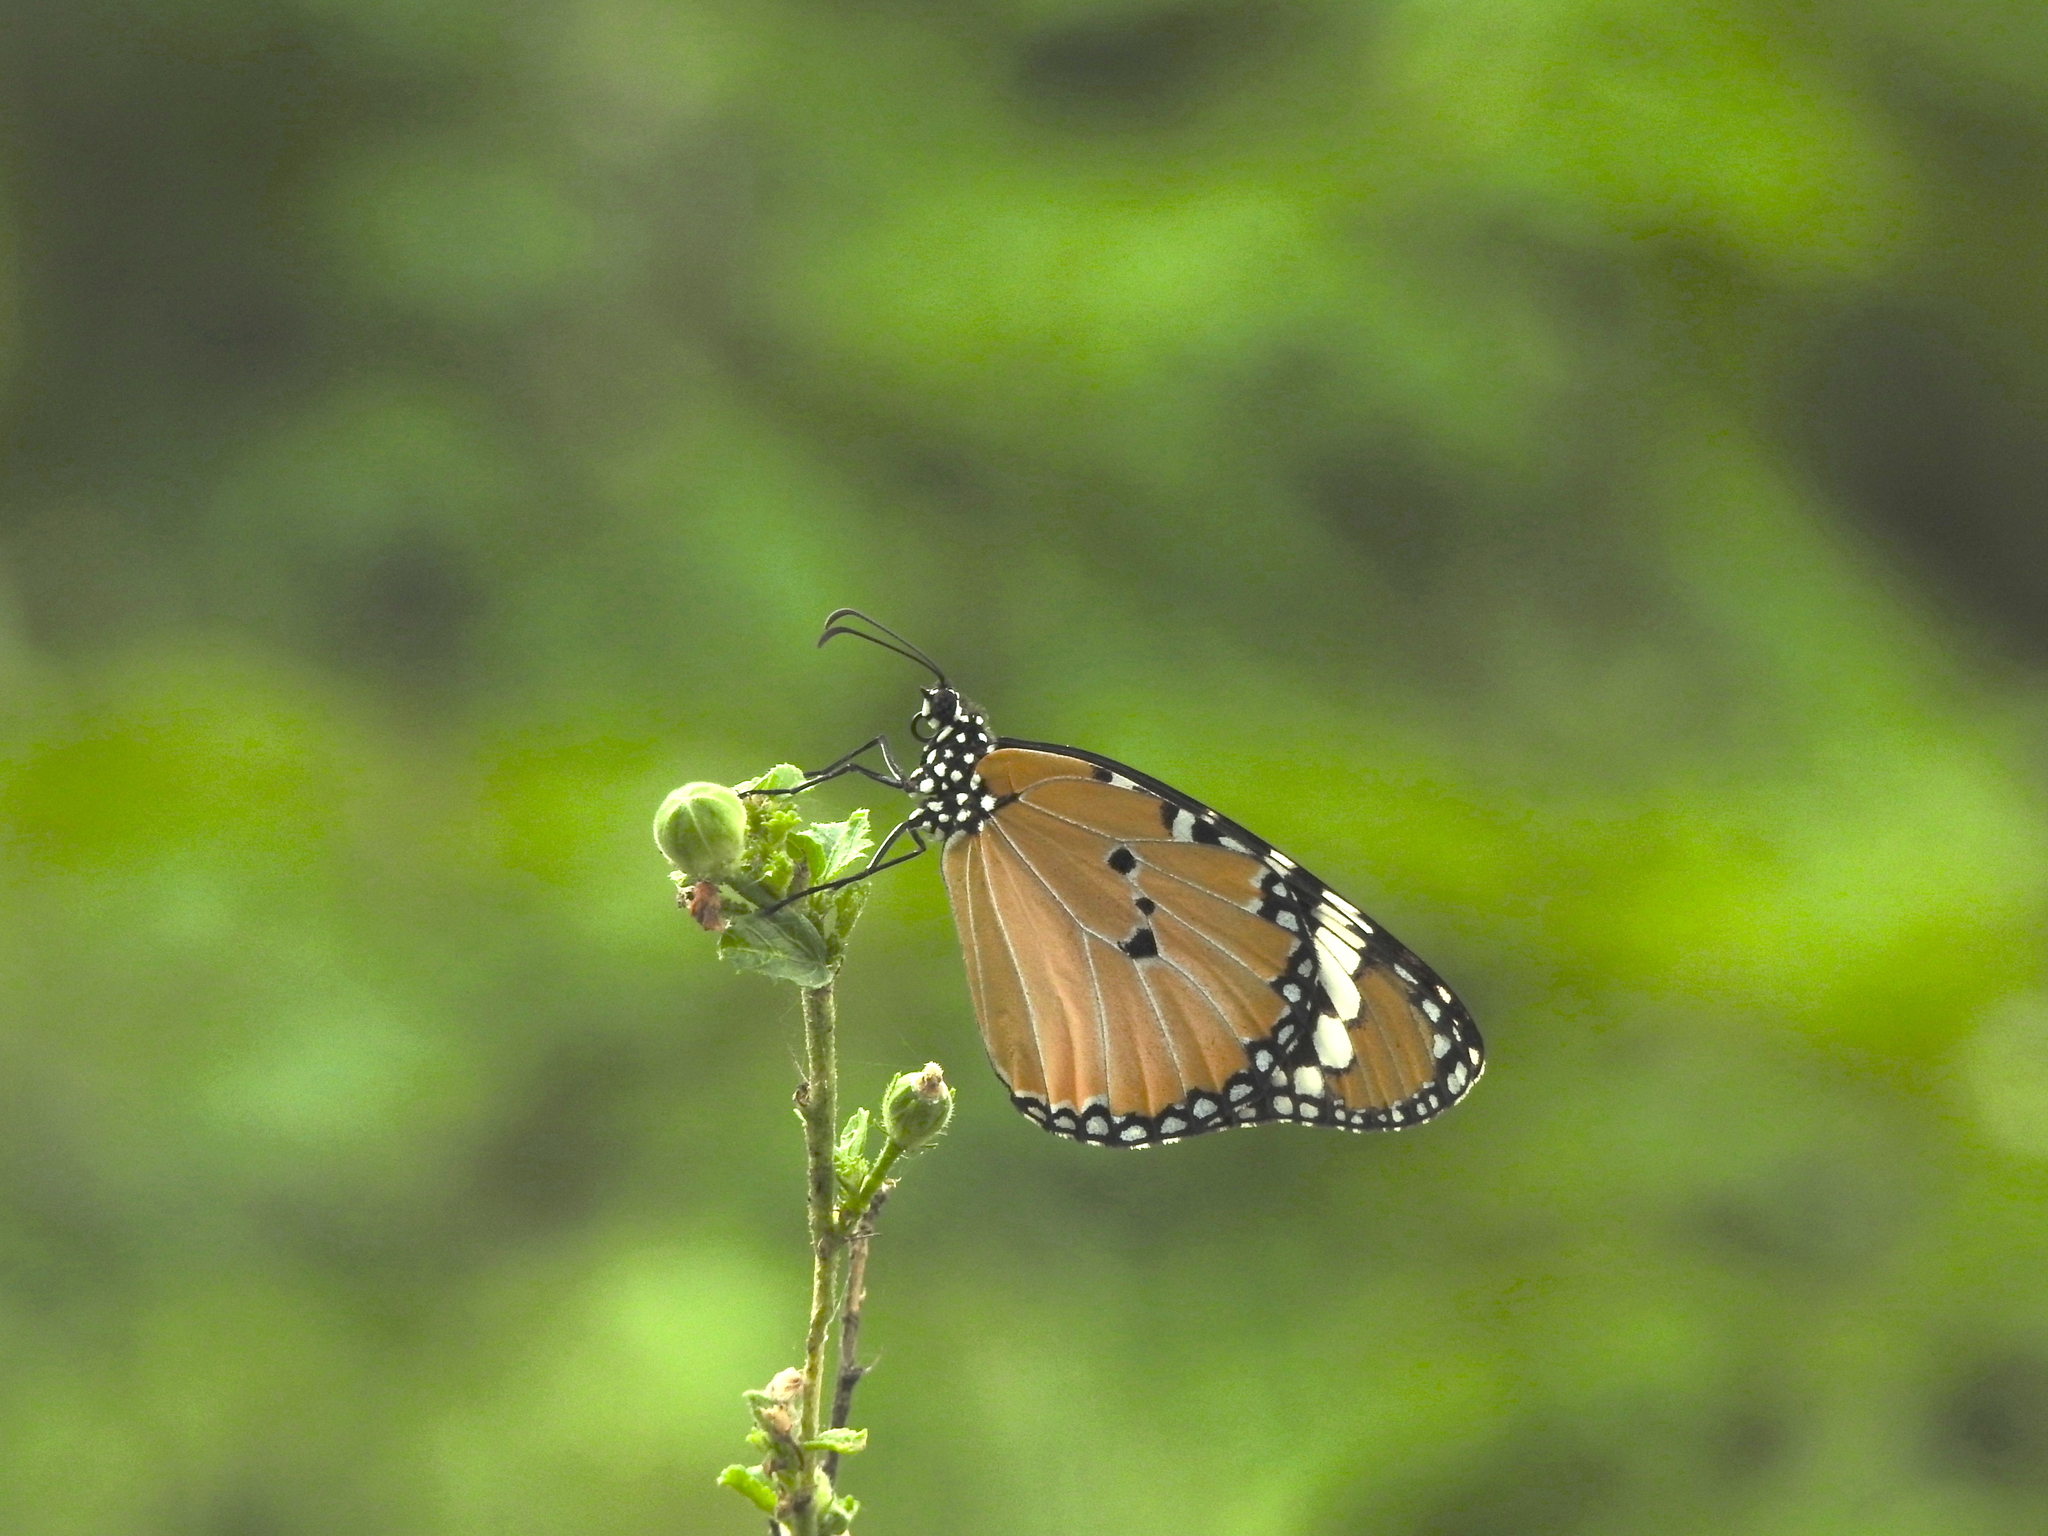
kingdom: Animalia
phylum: Arthropoda
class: Insecta
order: Lepidoptera
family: Nymphalidae
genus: Danaus
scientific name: Danaus chrysippus
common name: Plain tiger
